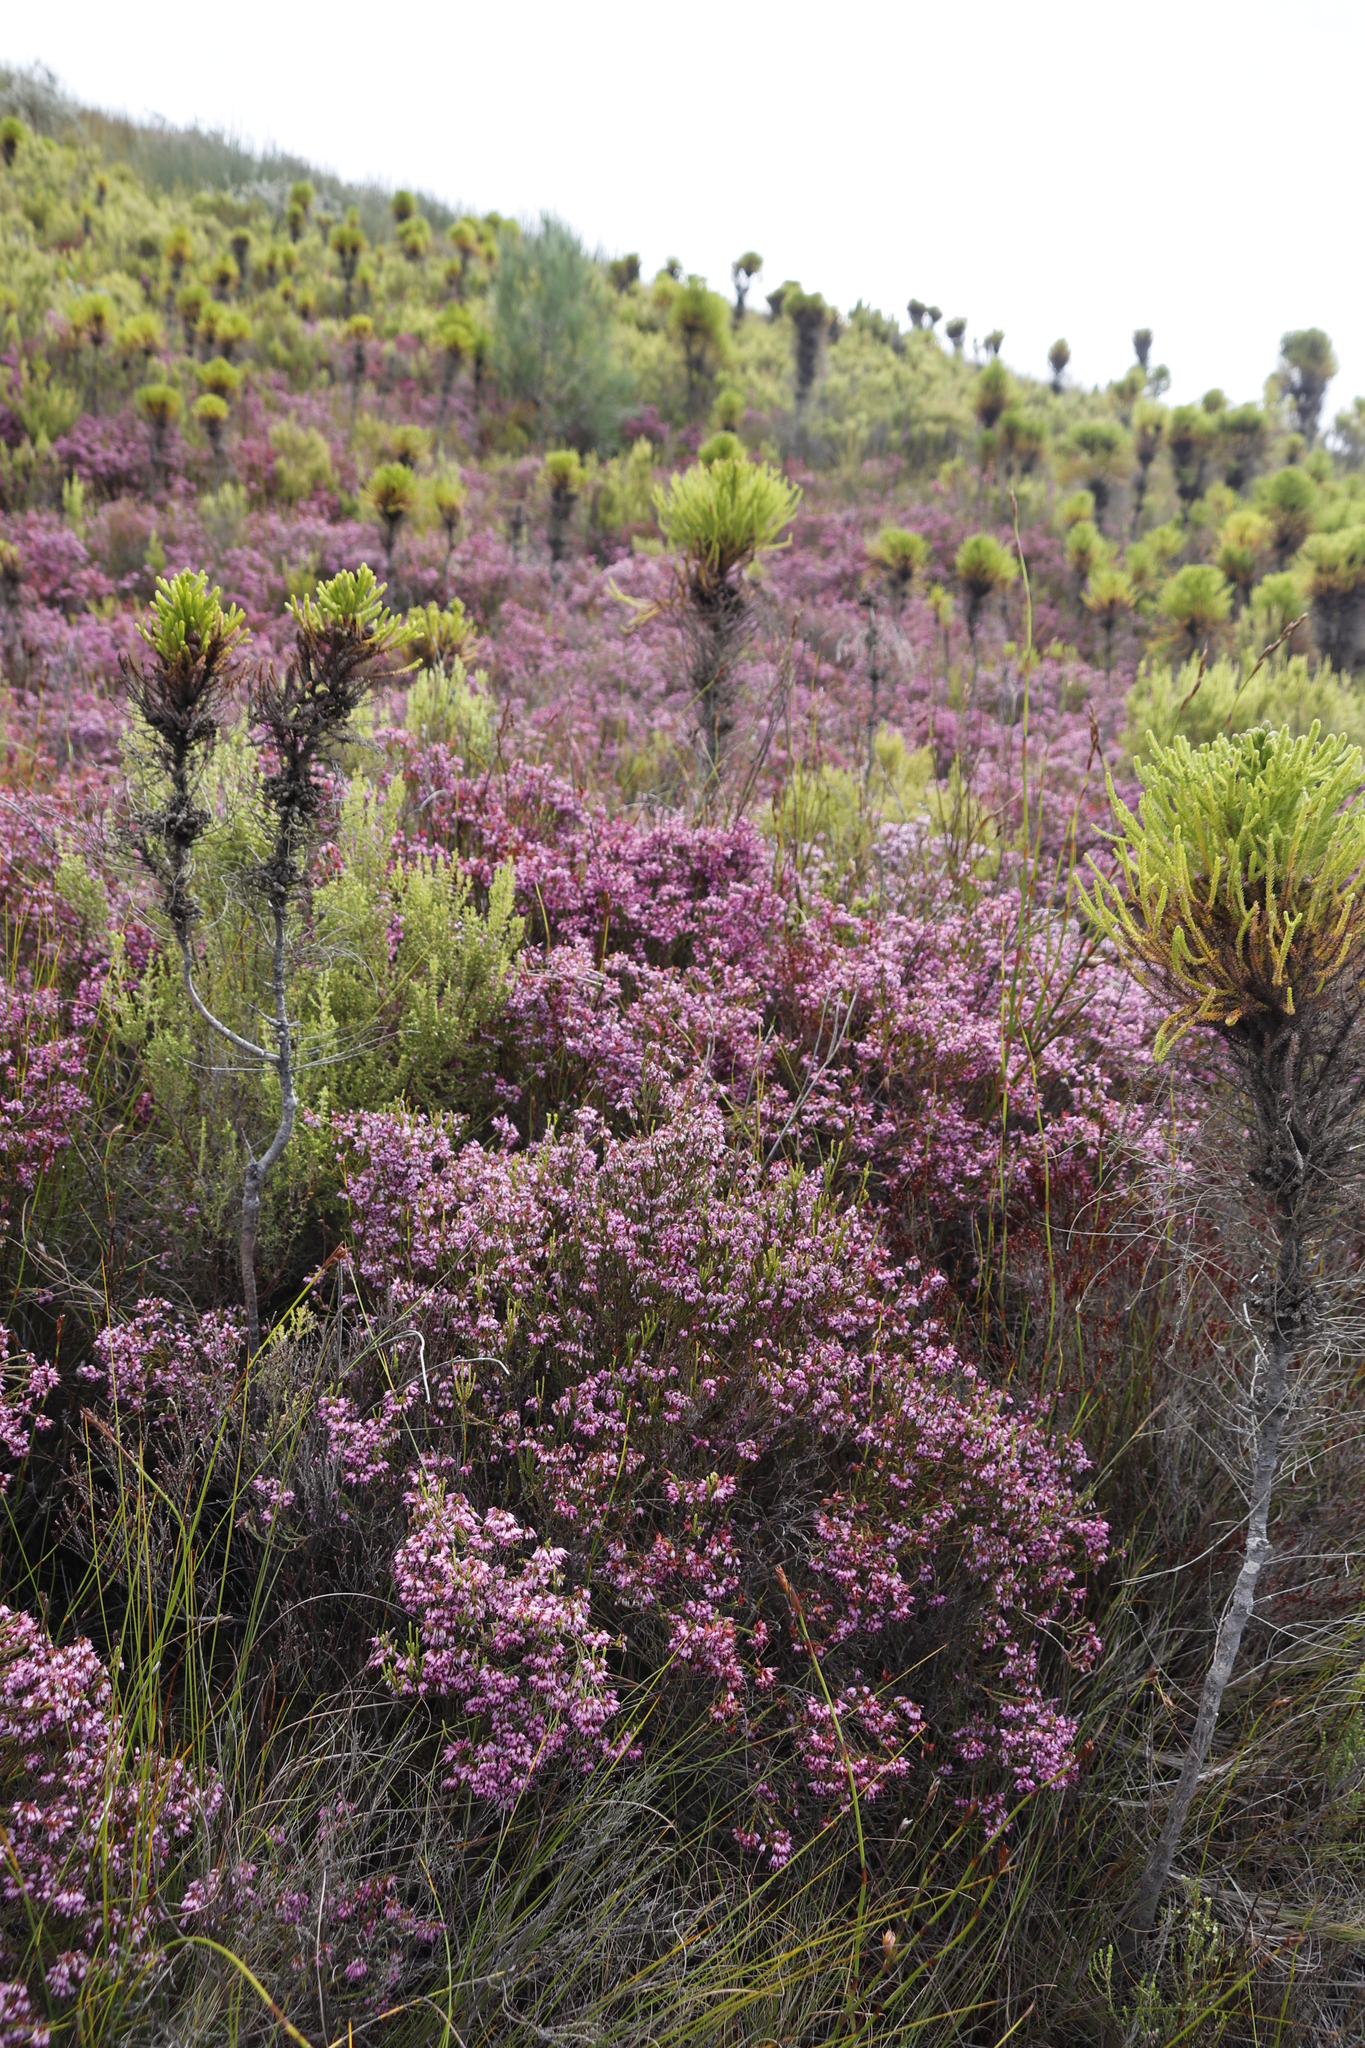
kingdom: Plantae
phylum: Tracheophyta
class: Magnoliopsida
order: Ericales
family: Ericaceae
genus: Erica
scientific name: Erica equisetifolia
